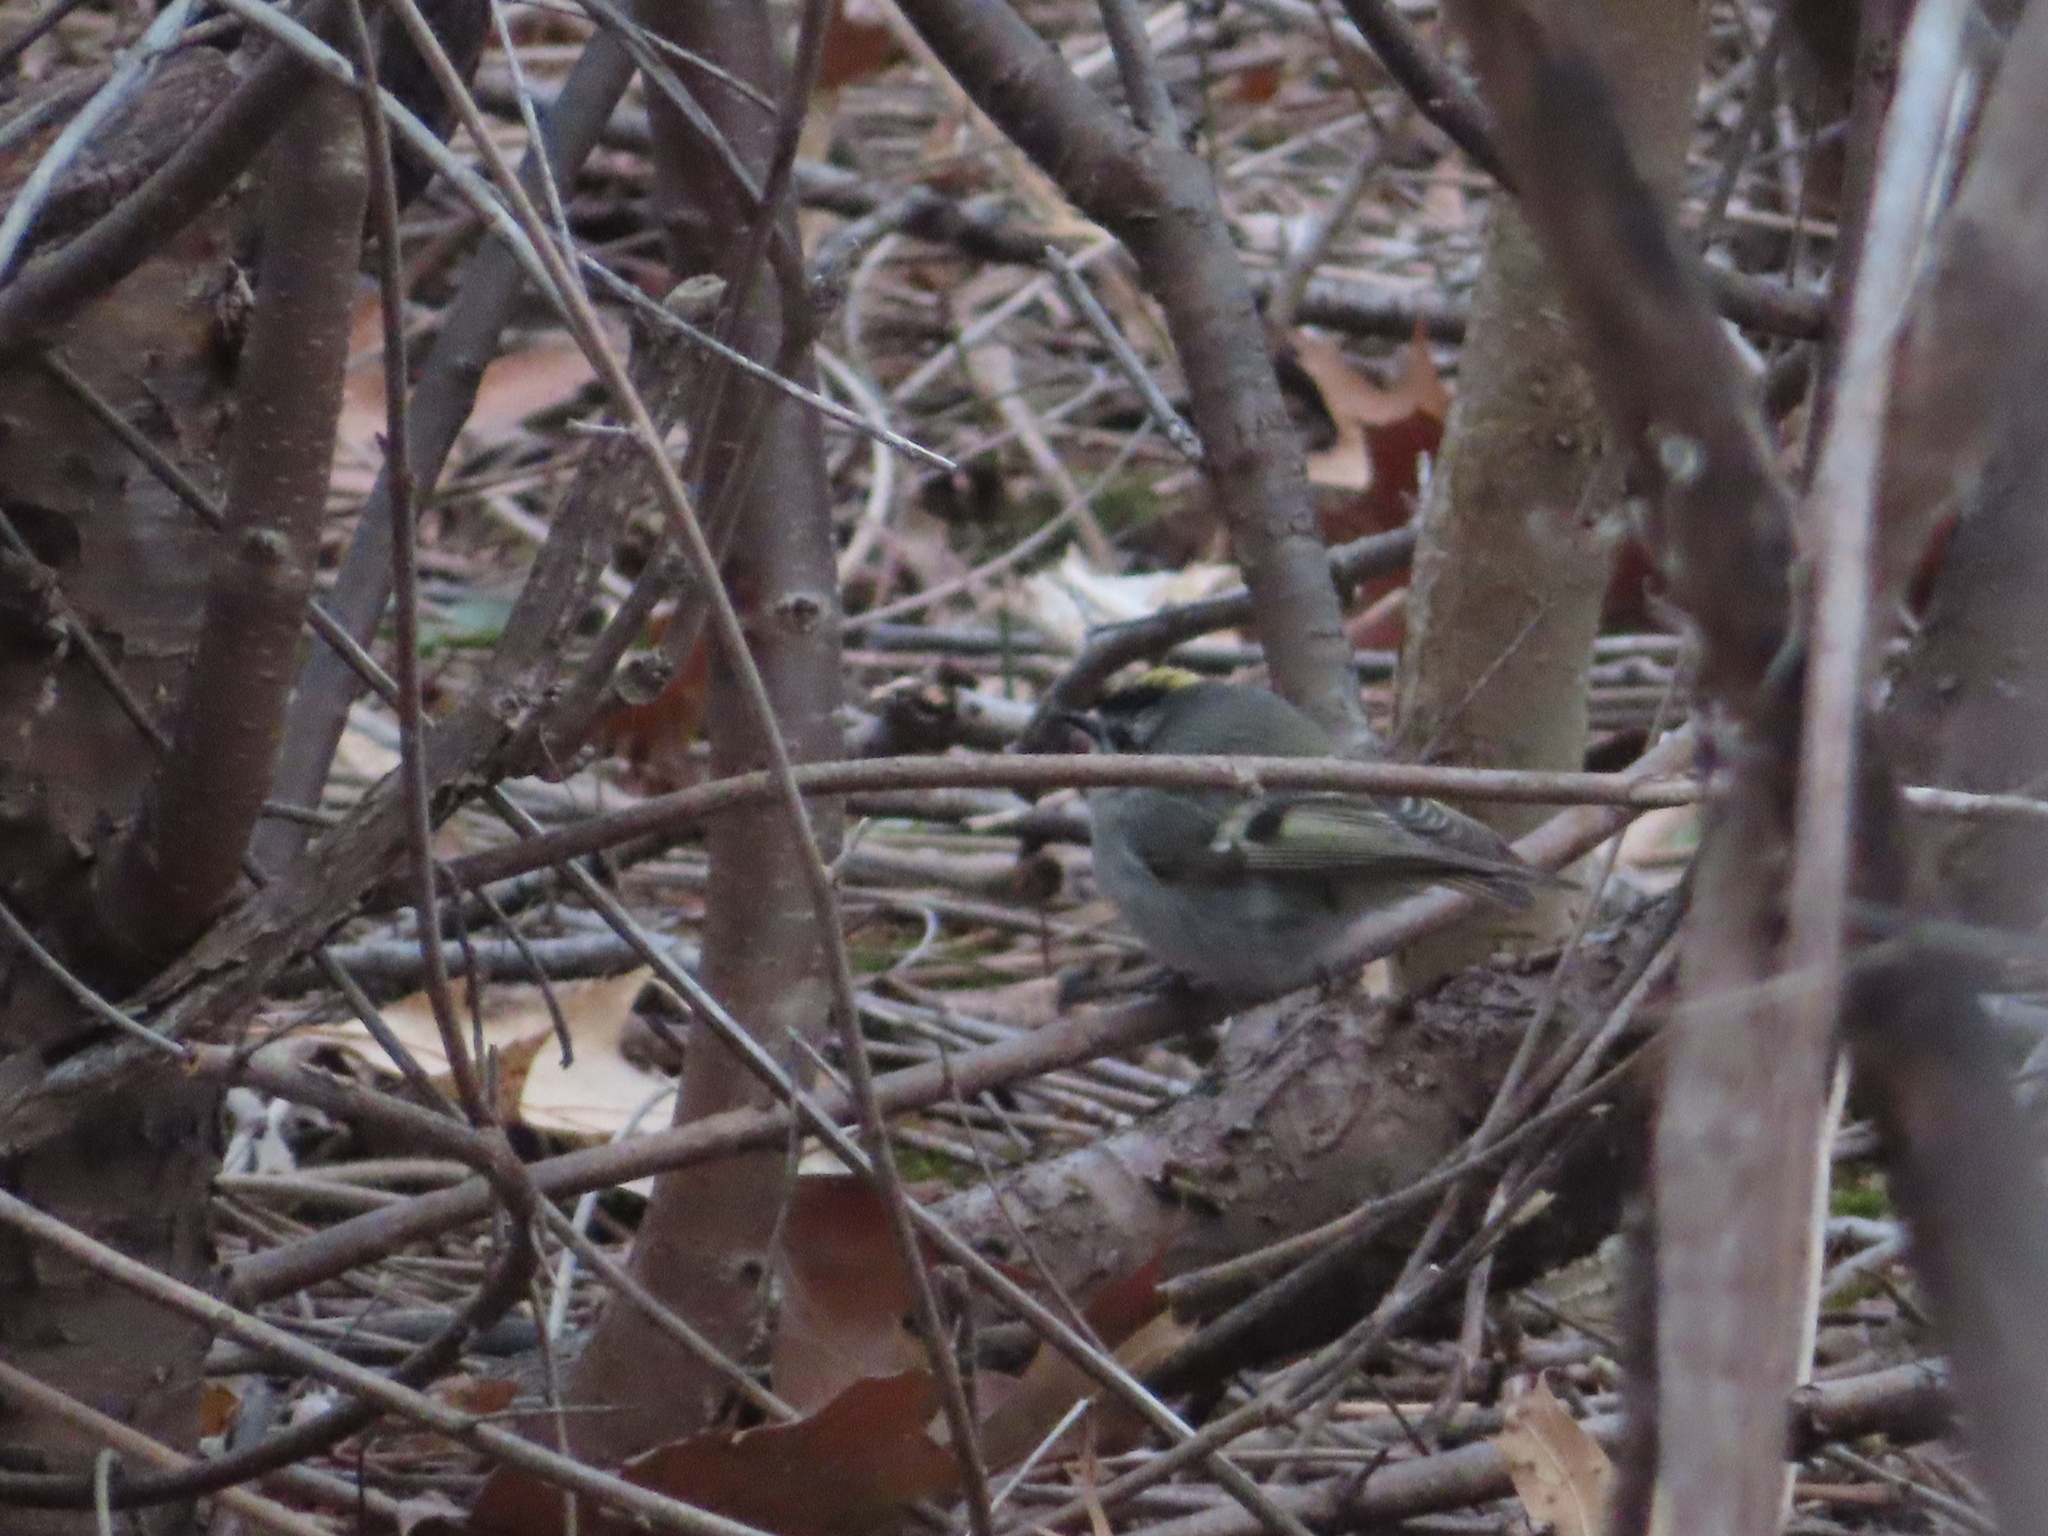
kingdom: Animalia
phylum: Chordata
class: Aves
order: Passeriformes
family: Regulidae
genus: Regulus
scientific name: Regulus satrapa
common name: Golden-crowned kinglet
